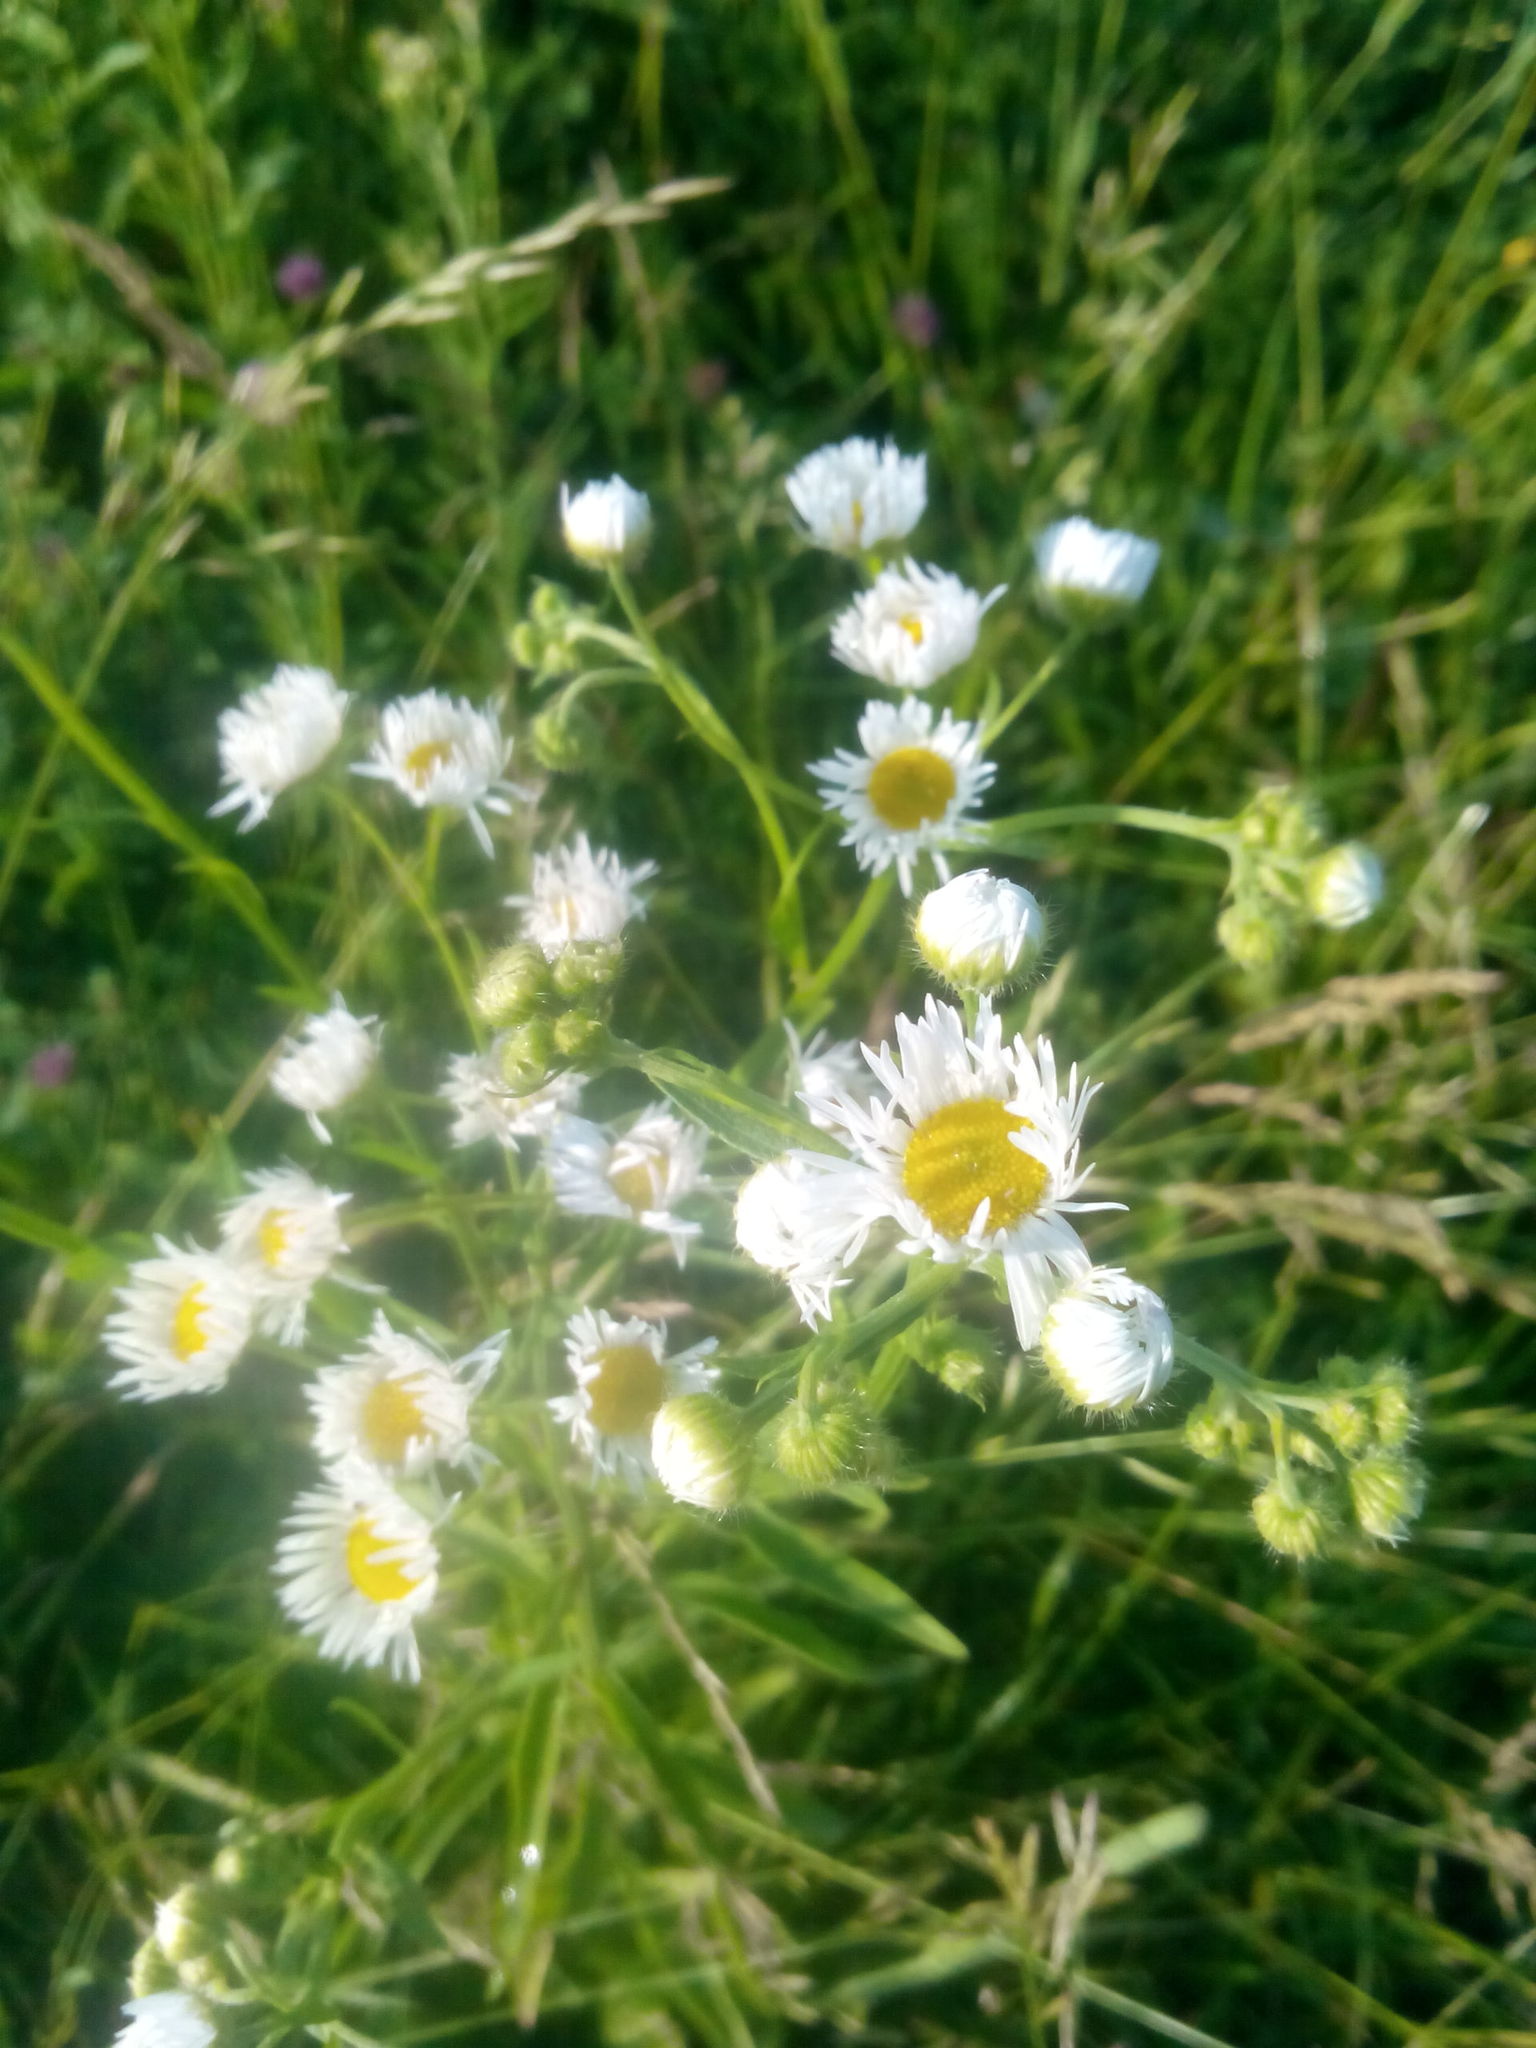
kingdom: Plantae
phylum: Tracheophyta
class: Magnoliopsida
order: Asterales
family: Asteraceae
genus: Erigeron
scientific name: Erigeron annuus
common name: Tall fleabane
